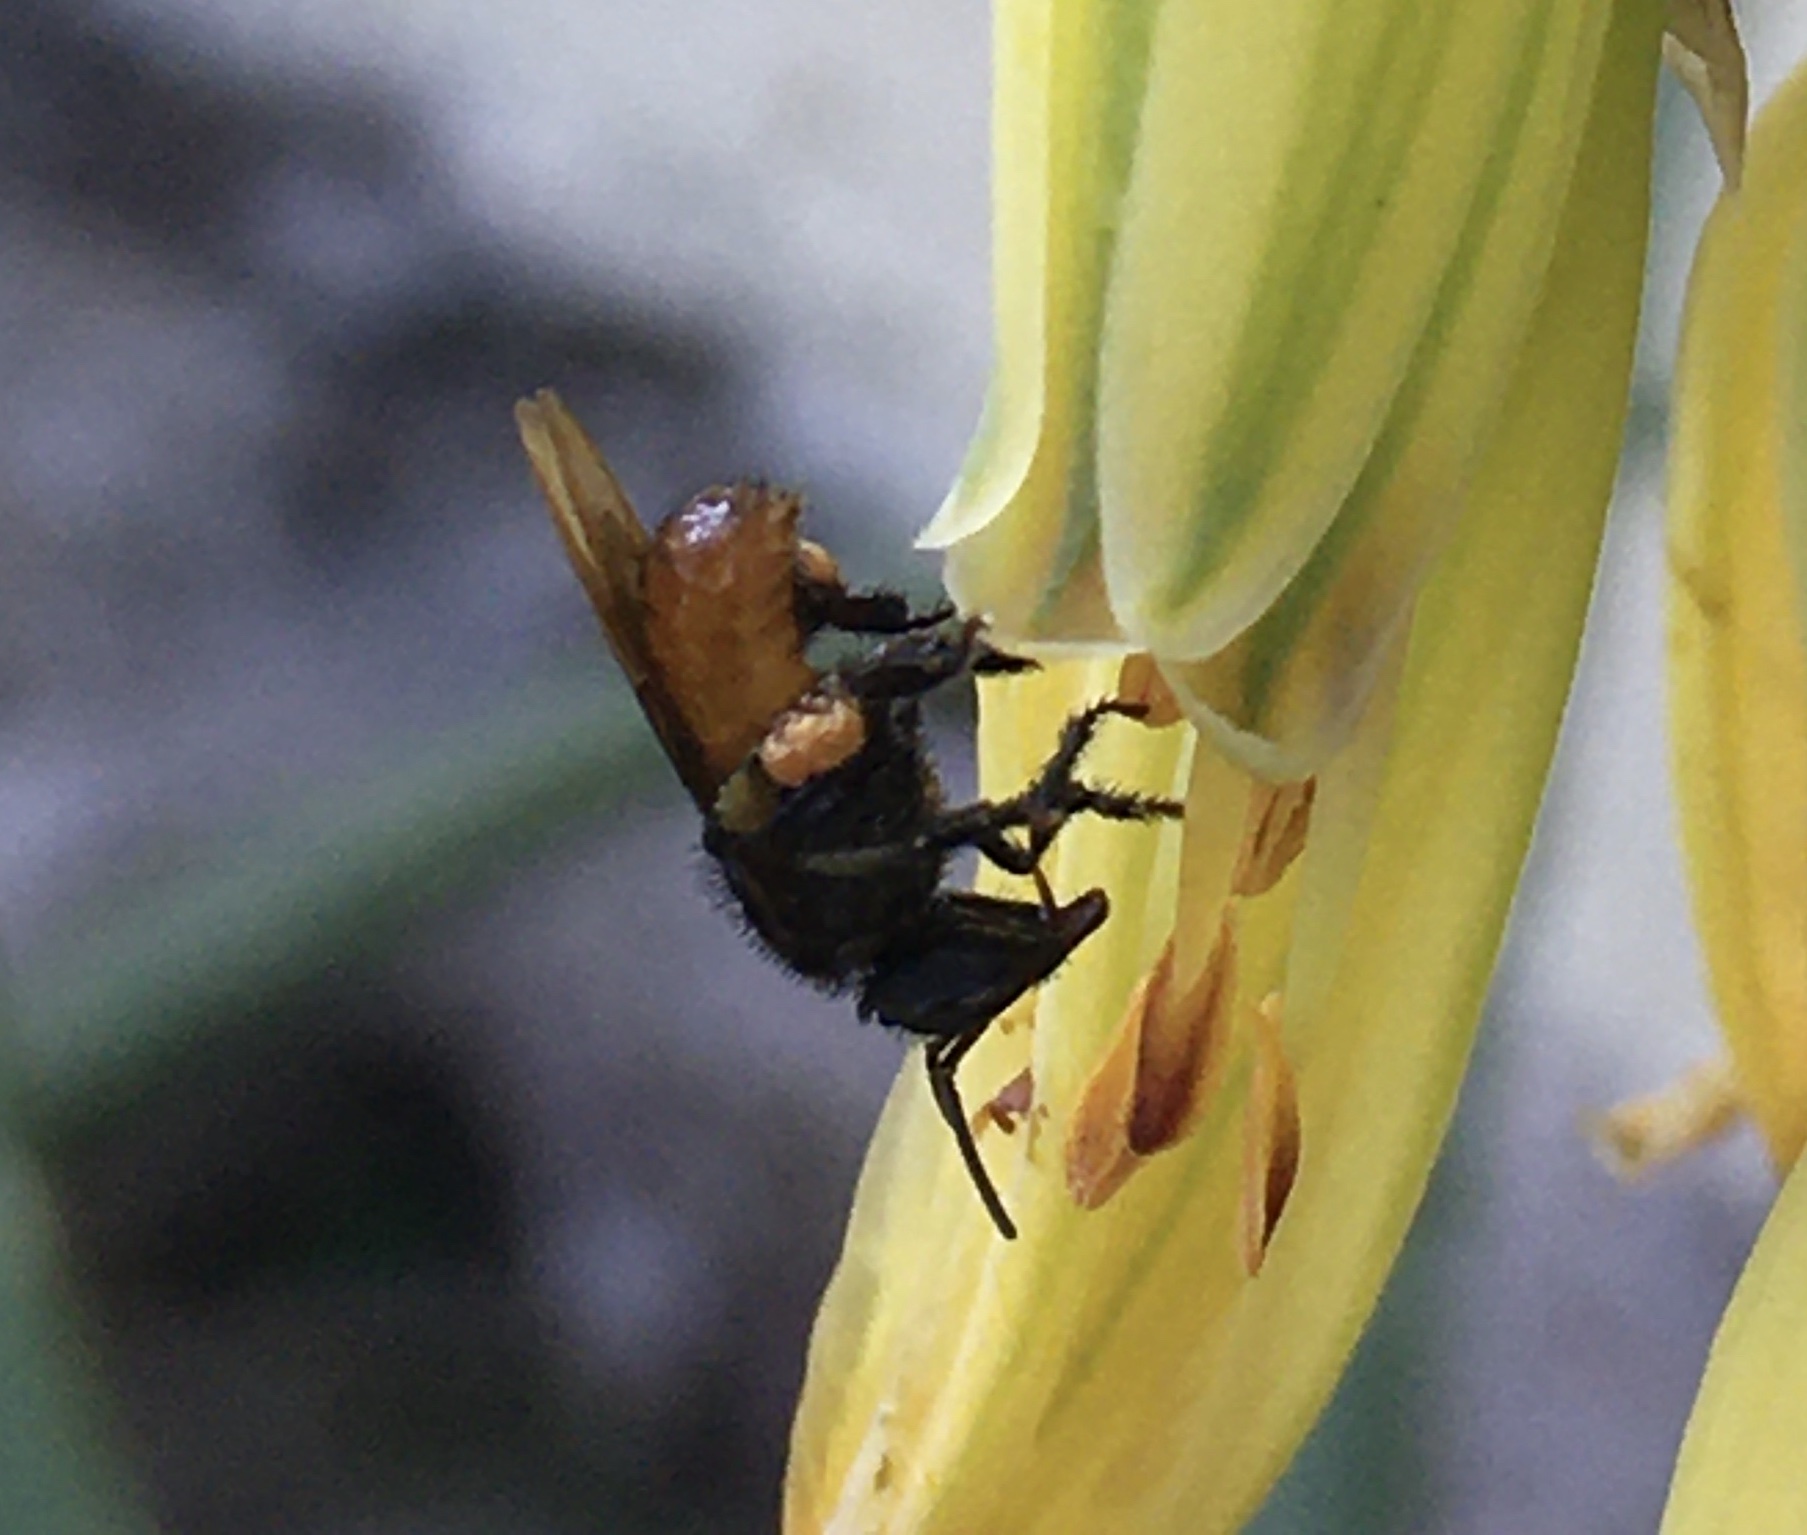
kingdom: Animalia
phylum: Arthropoda
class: Insecta
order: Hymenoptera
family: Apidae
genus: Trigona
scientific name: Trigona fulviventris
